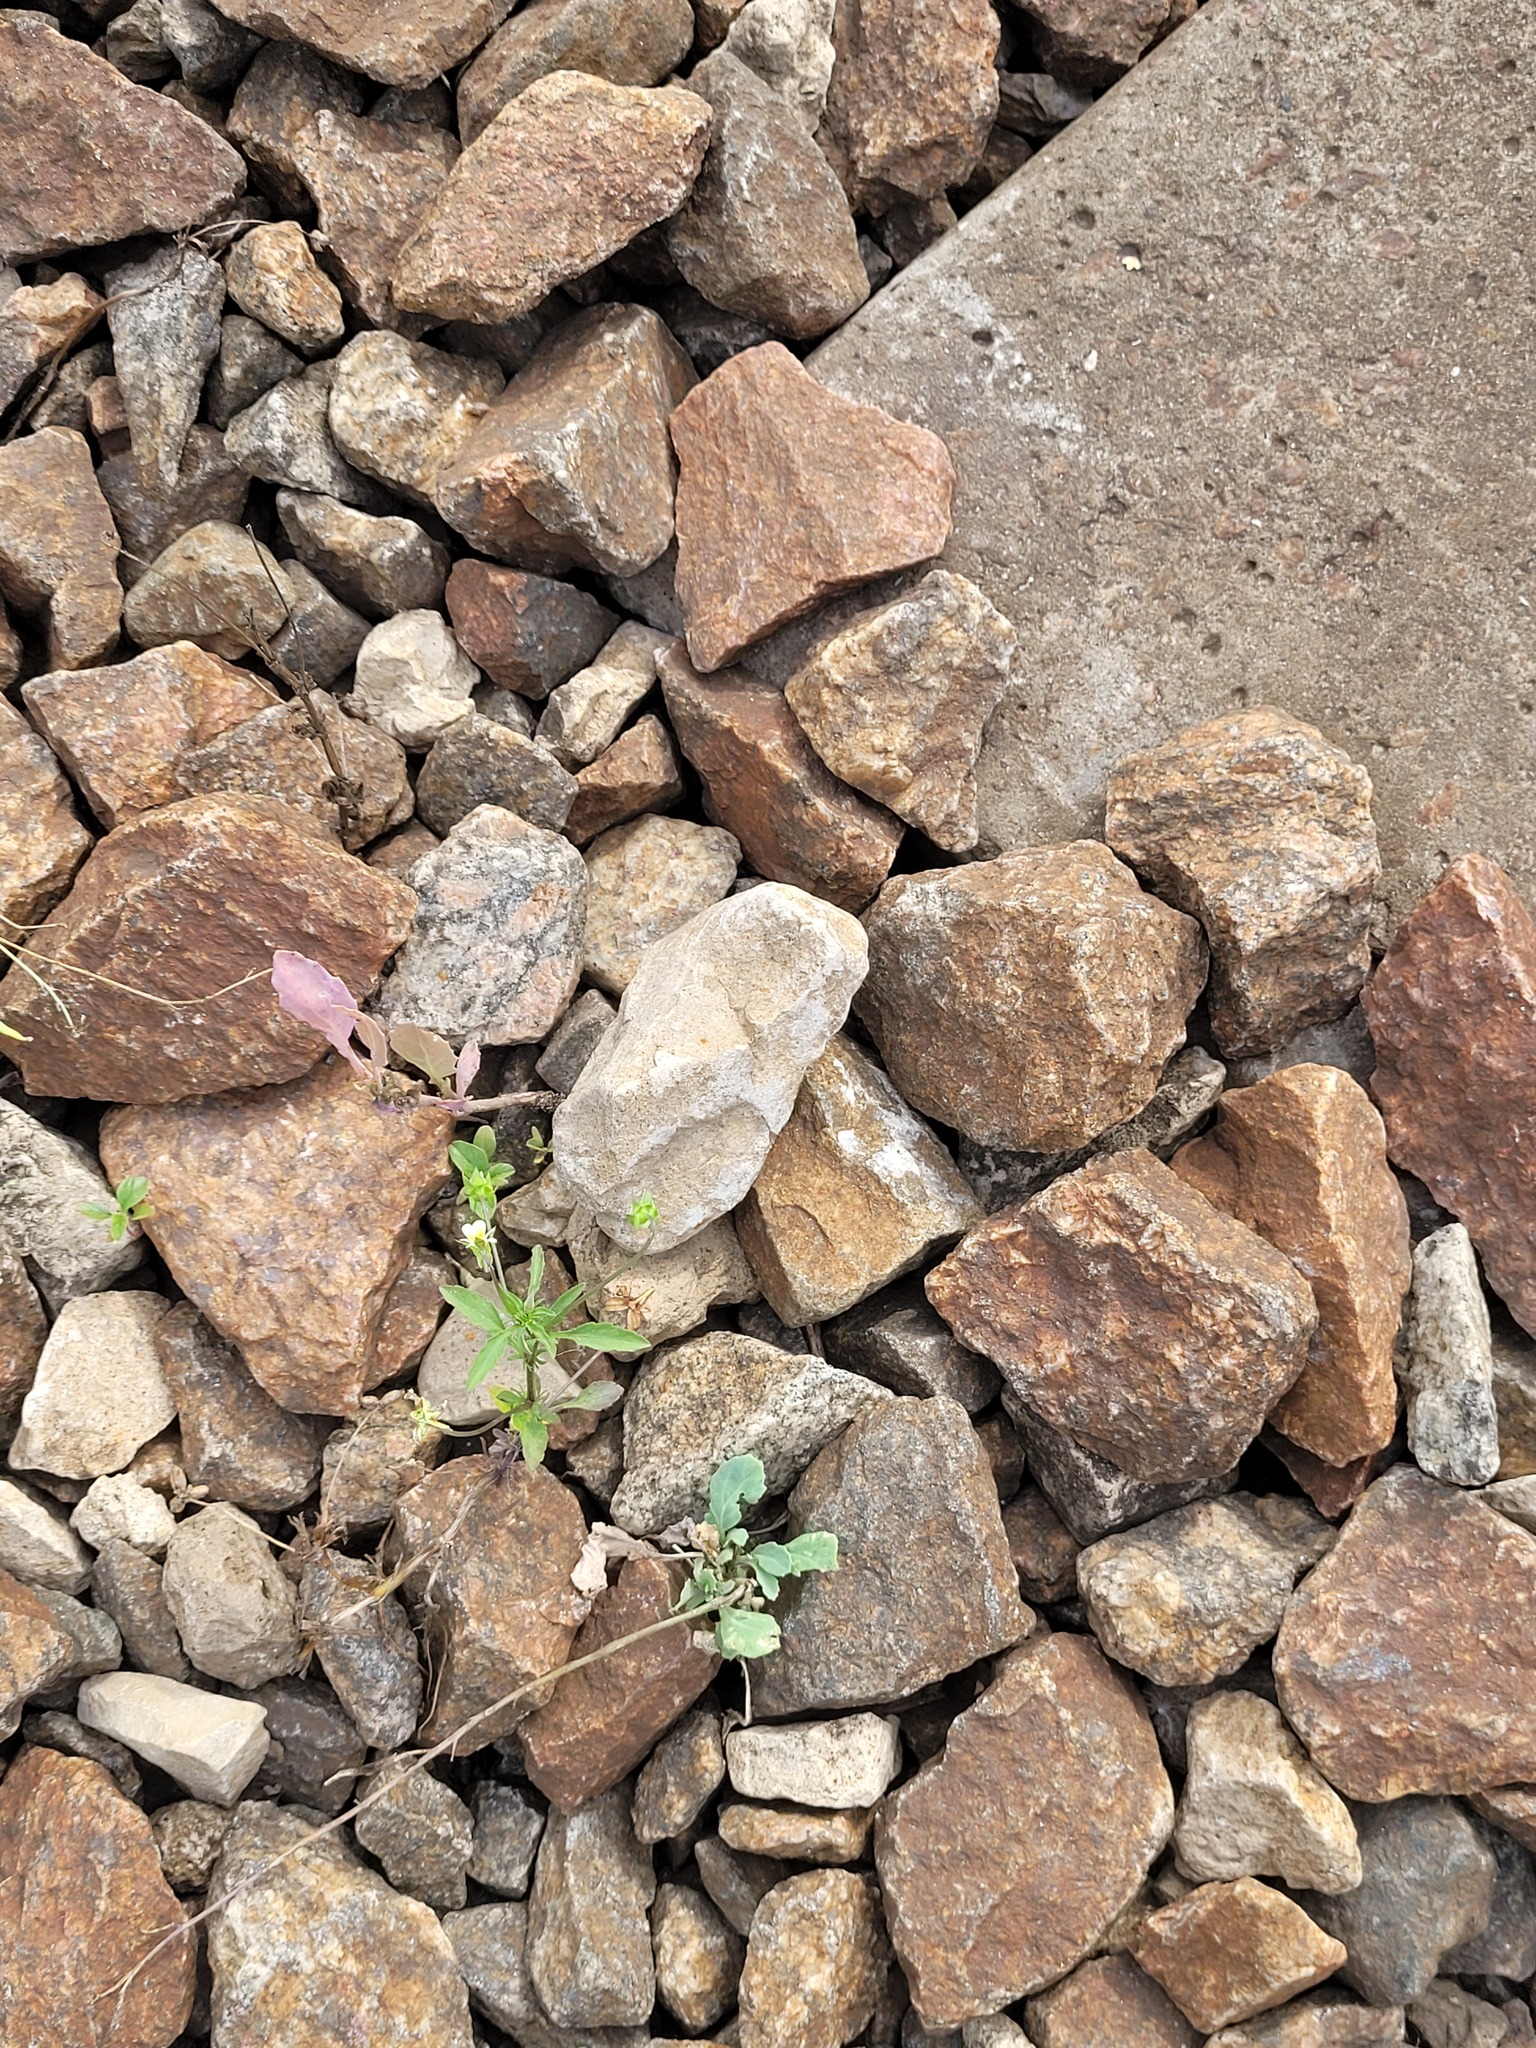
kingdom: Plantae
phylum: Tracheophyta
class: Magnoliopsida
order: Malpighiales
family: Violaceae
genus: Viola
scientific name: Viola arvensis
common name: Field pansy
